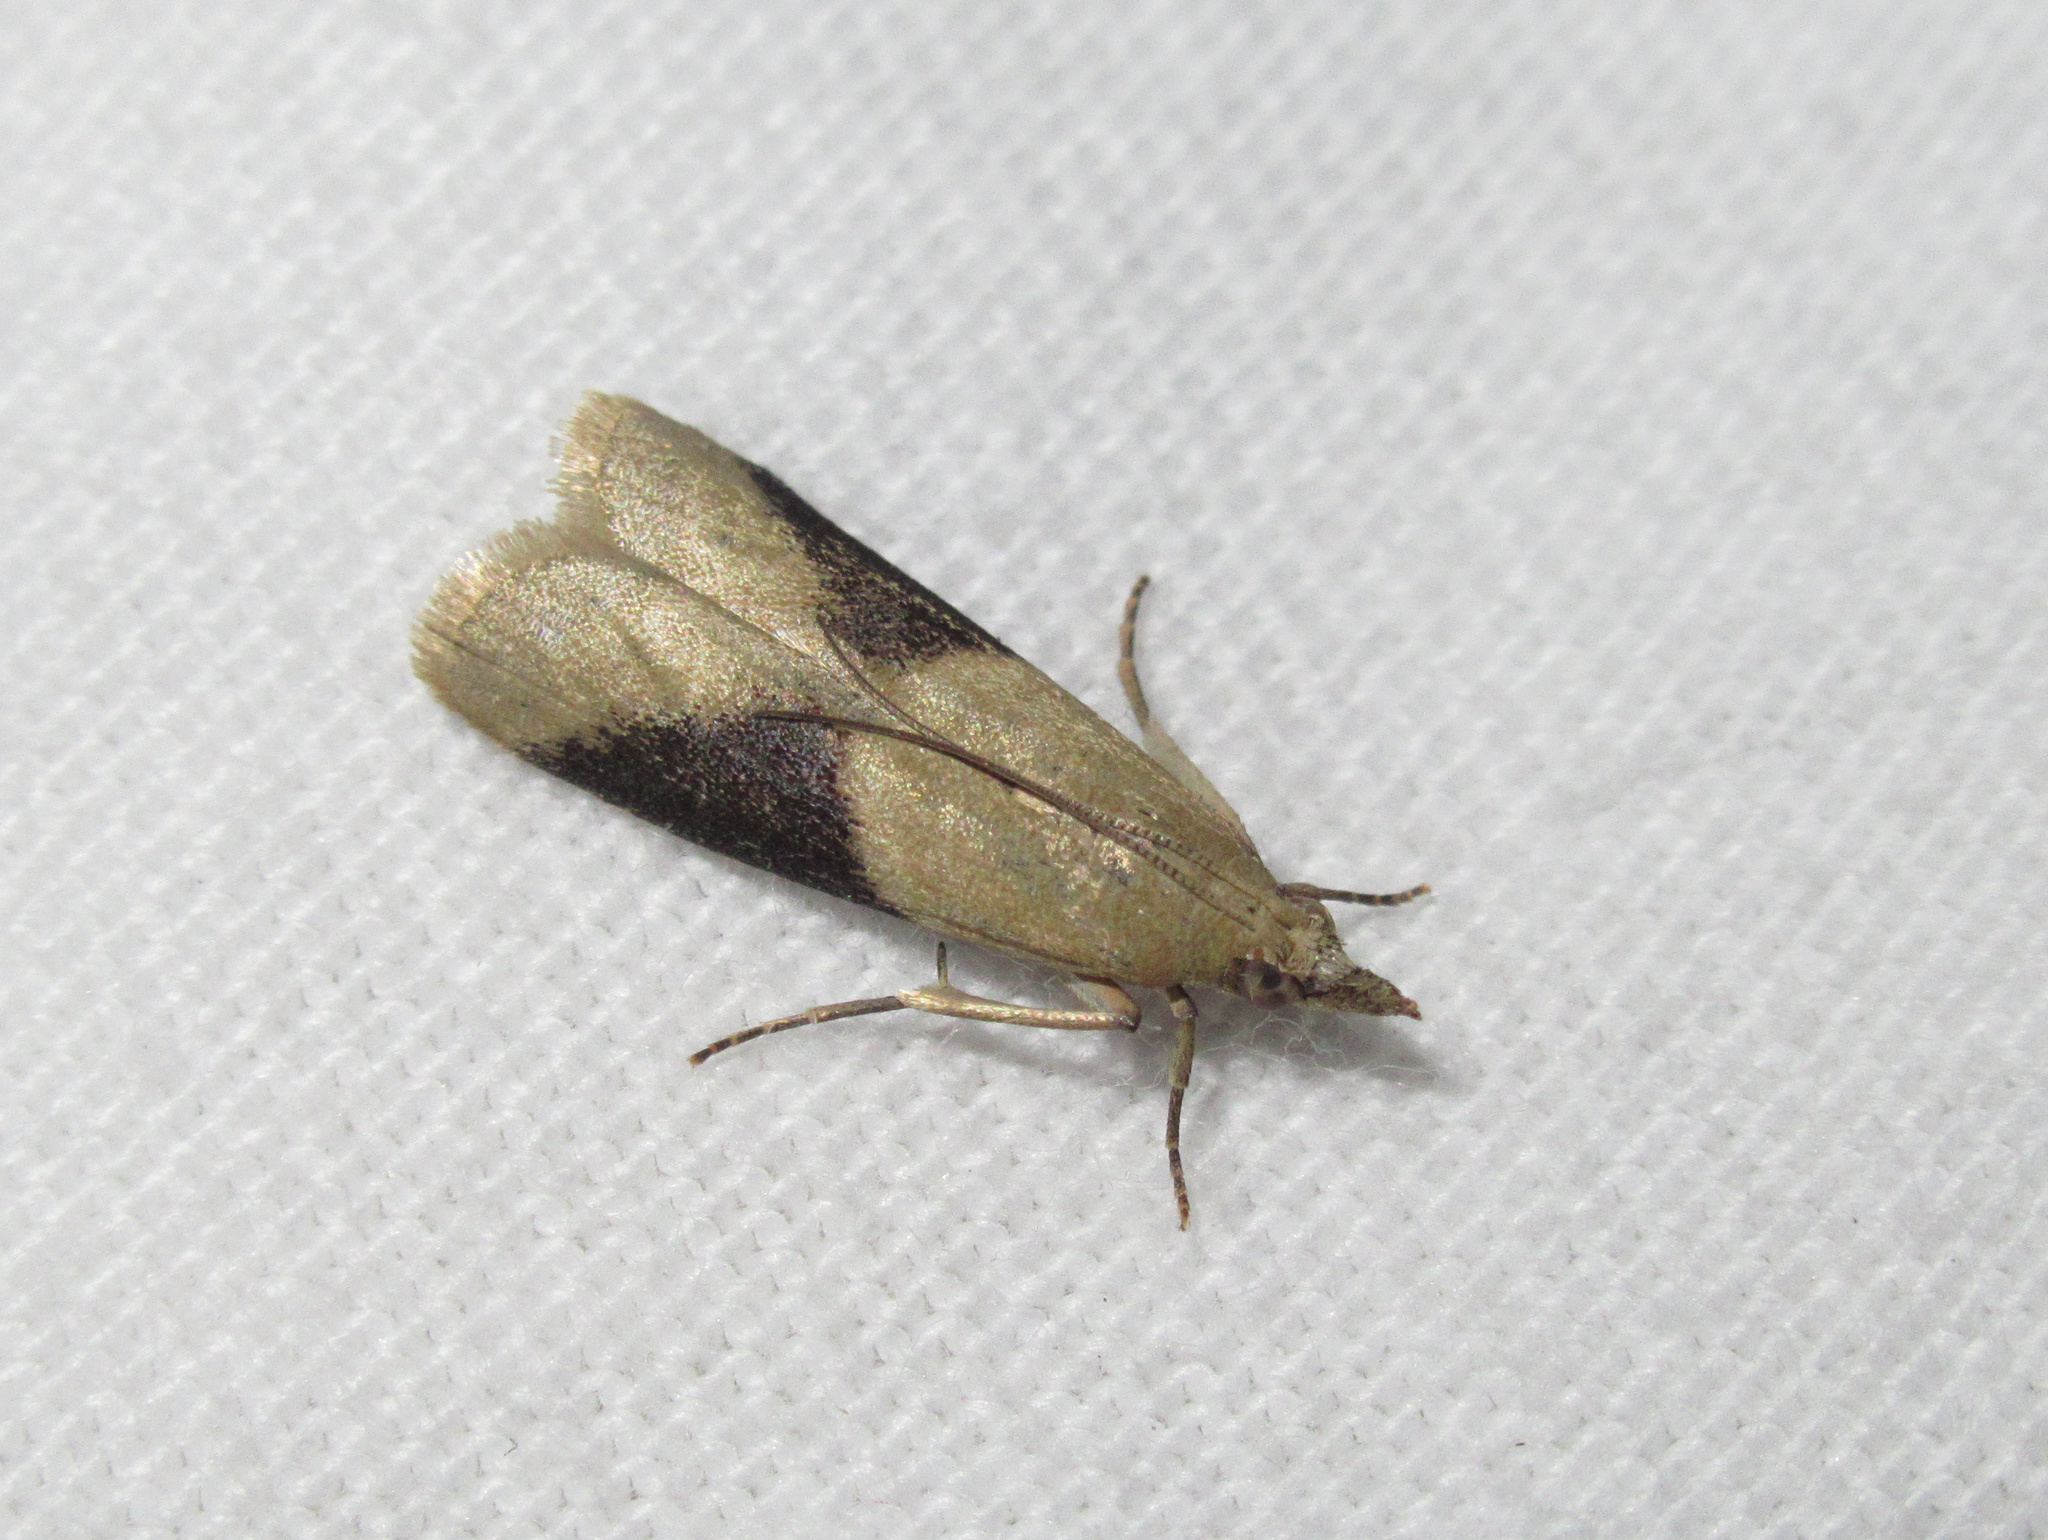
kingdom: Animalia
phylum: Arthropoda
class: Insecta
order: Lepidoptera
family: Pyralidae
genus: Ptyomaxia
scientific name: Ptyomaxia trigonogramma
